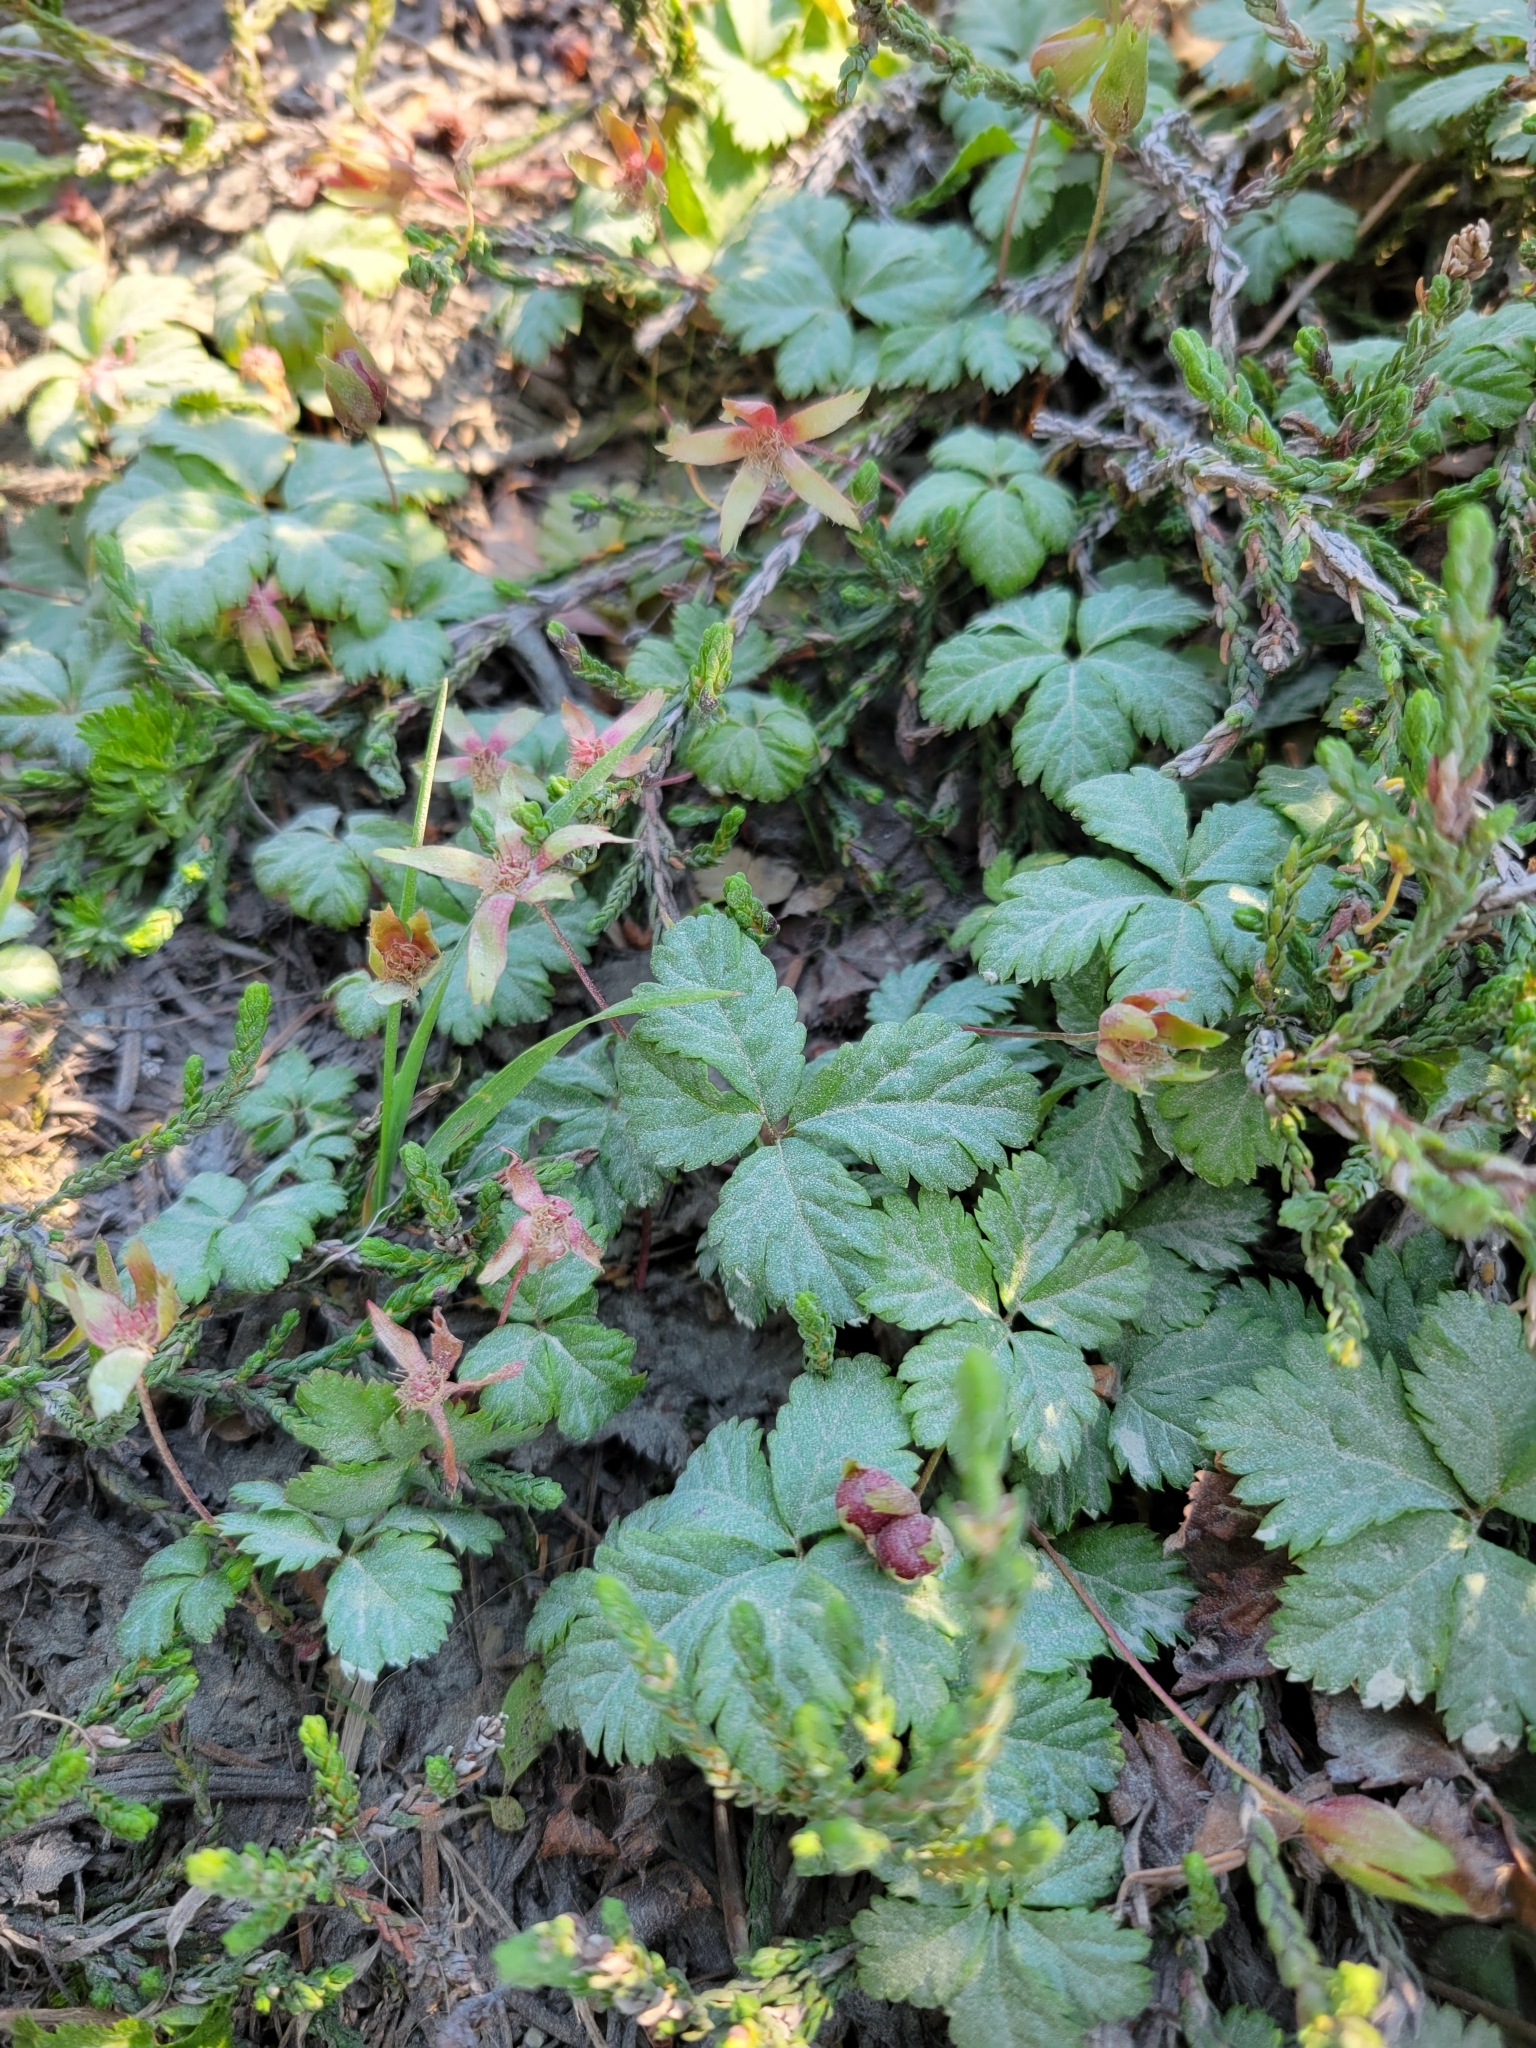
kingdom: Plantae
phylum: Tracheophyta
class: Magnoliopsida
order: Rosales
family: Rosaceae
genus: Rubus
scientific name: Rubus pedatus
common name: Creeping raspberry
